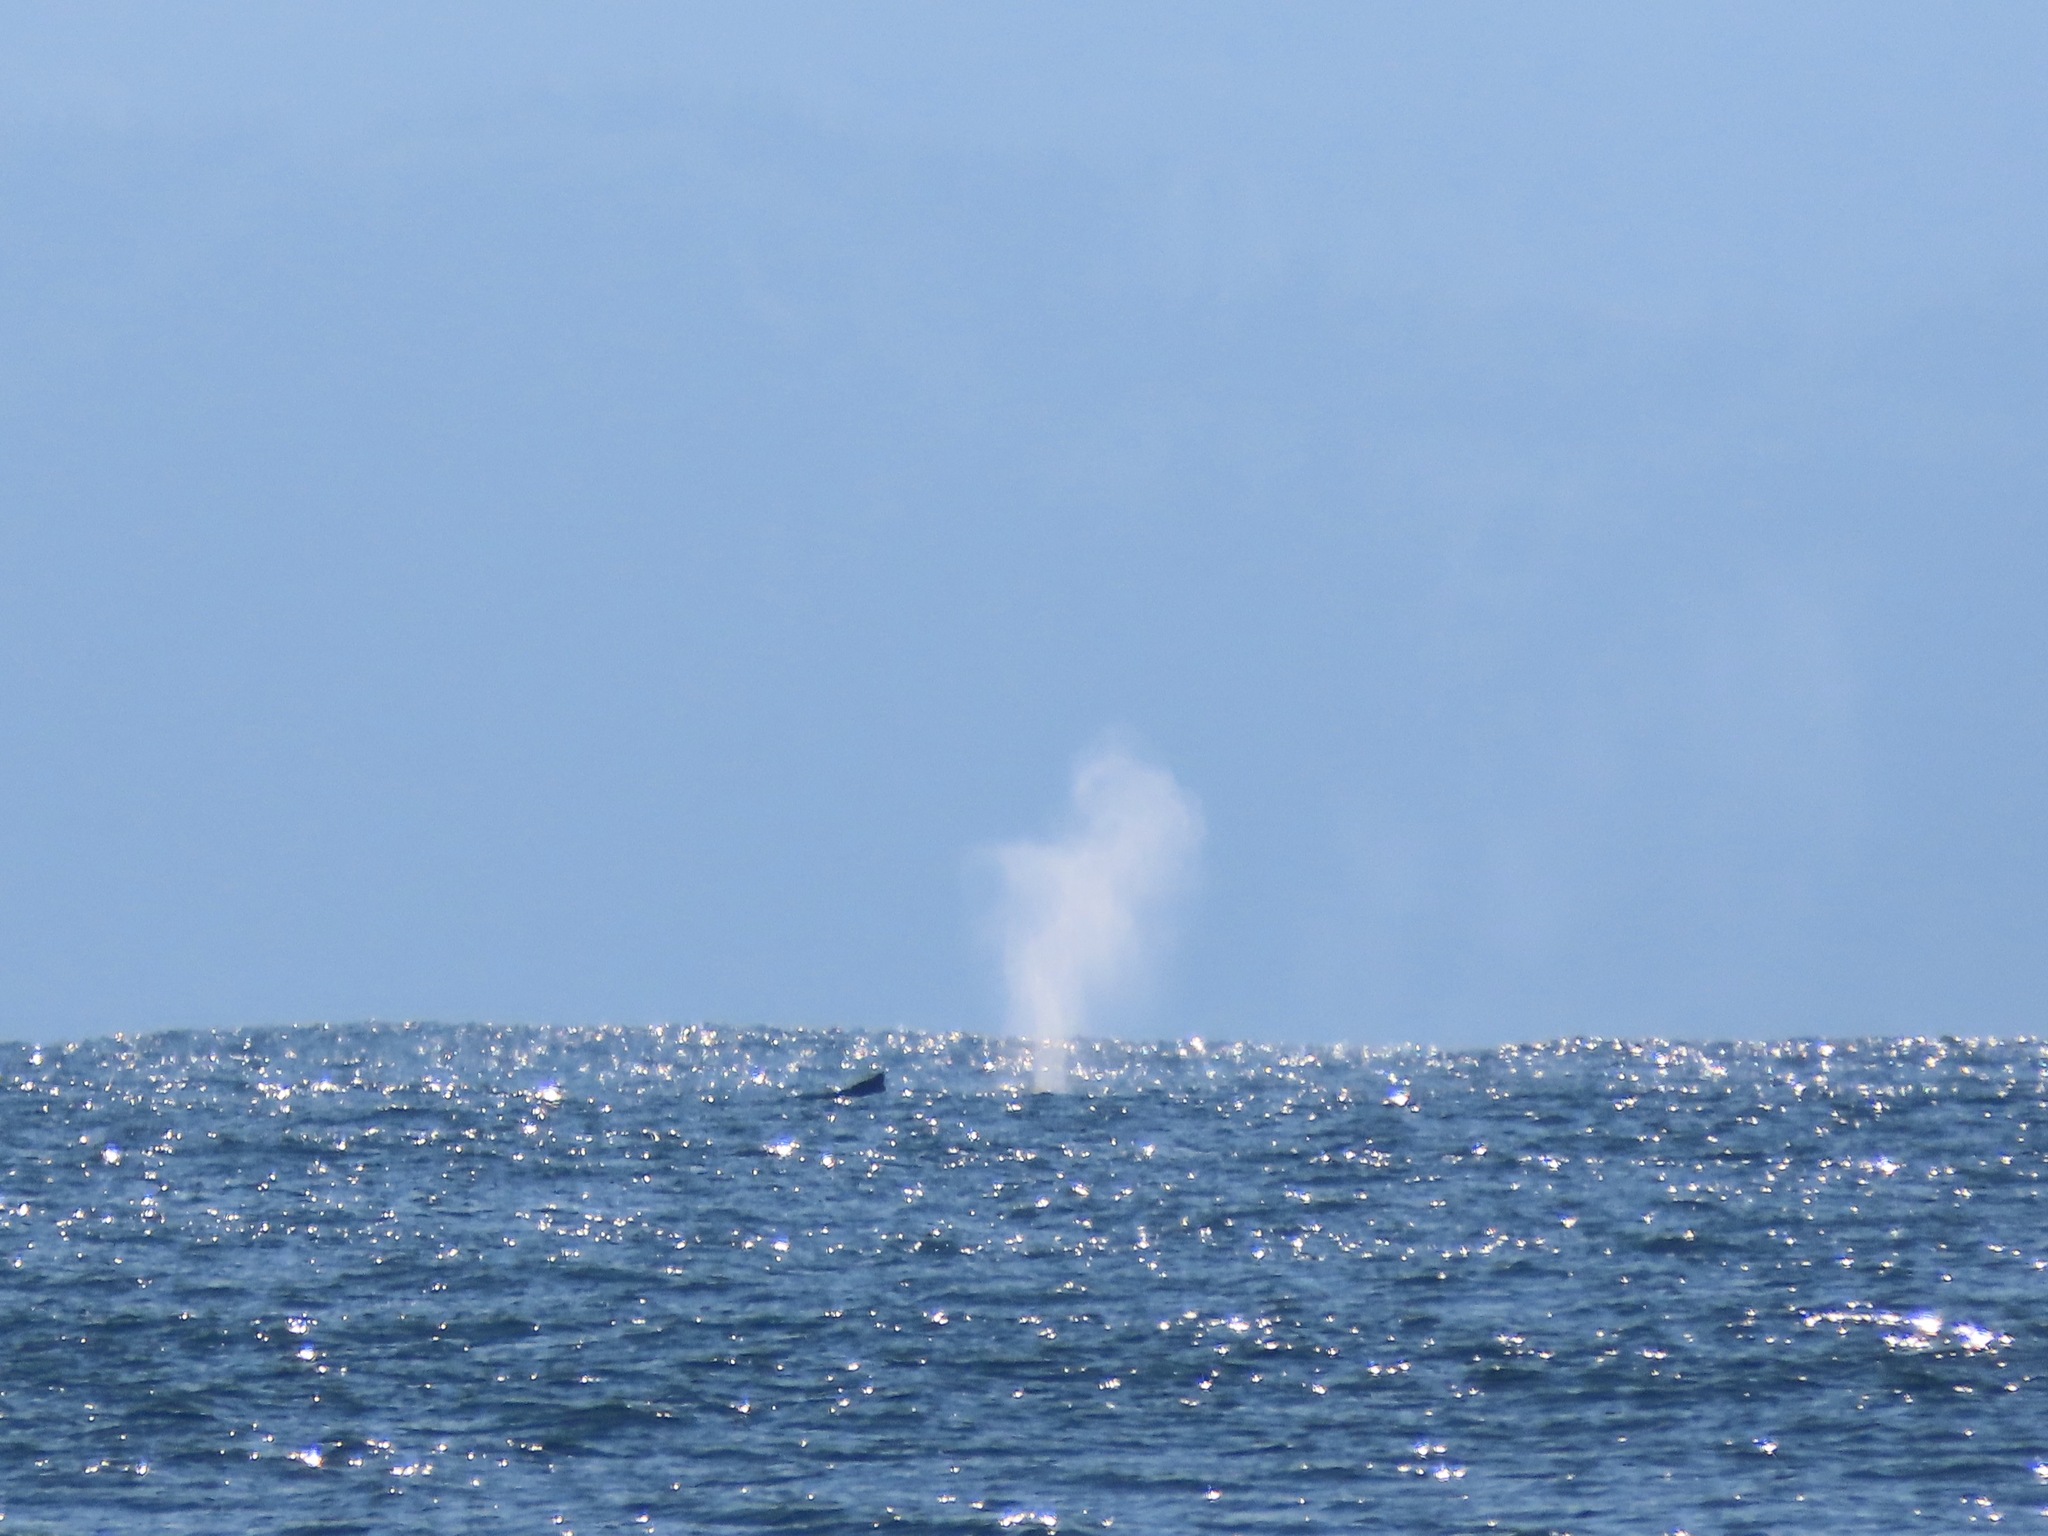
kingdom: Animalia
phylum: Chordata
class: Mammalia
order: Cetacea
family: Balaenopteridae
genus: Megaptera
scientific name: Megaptera novaeangliae
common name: Humpback whale
